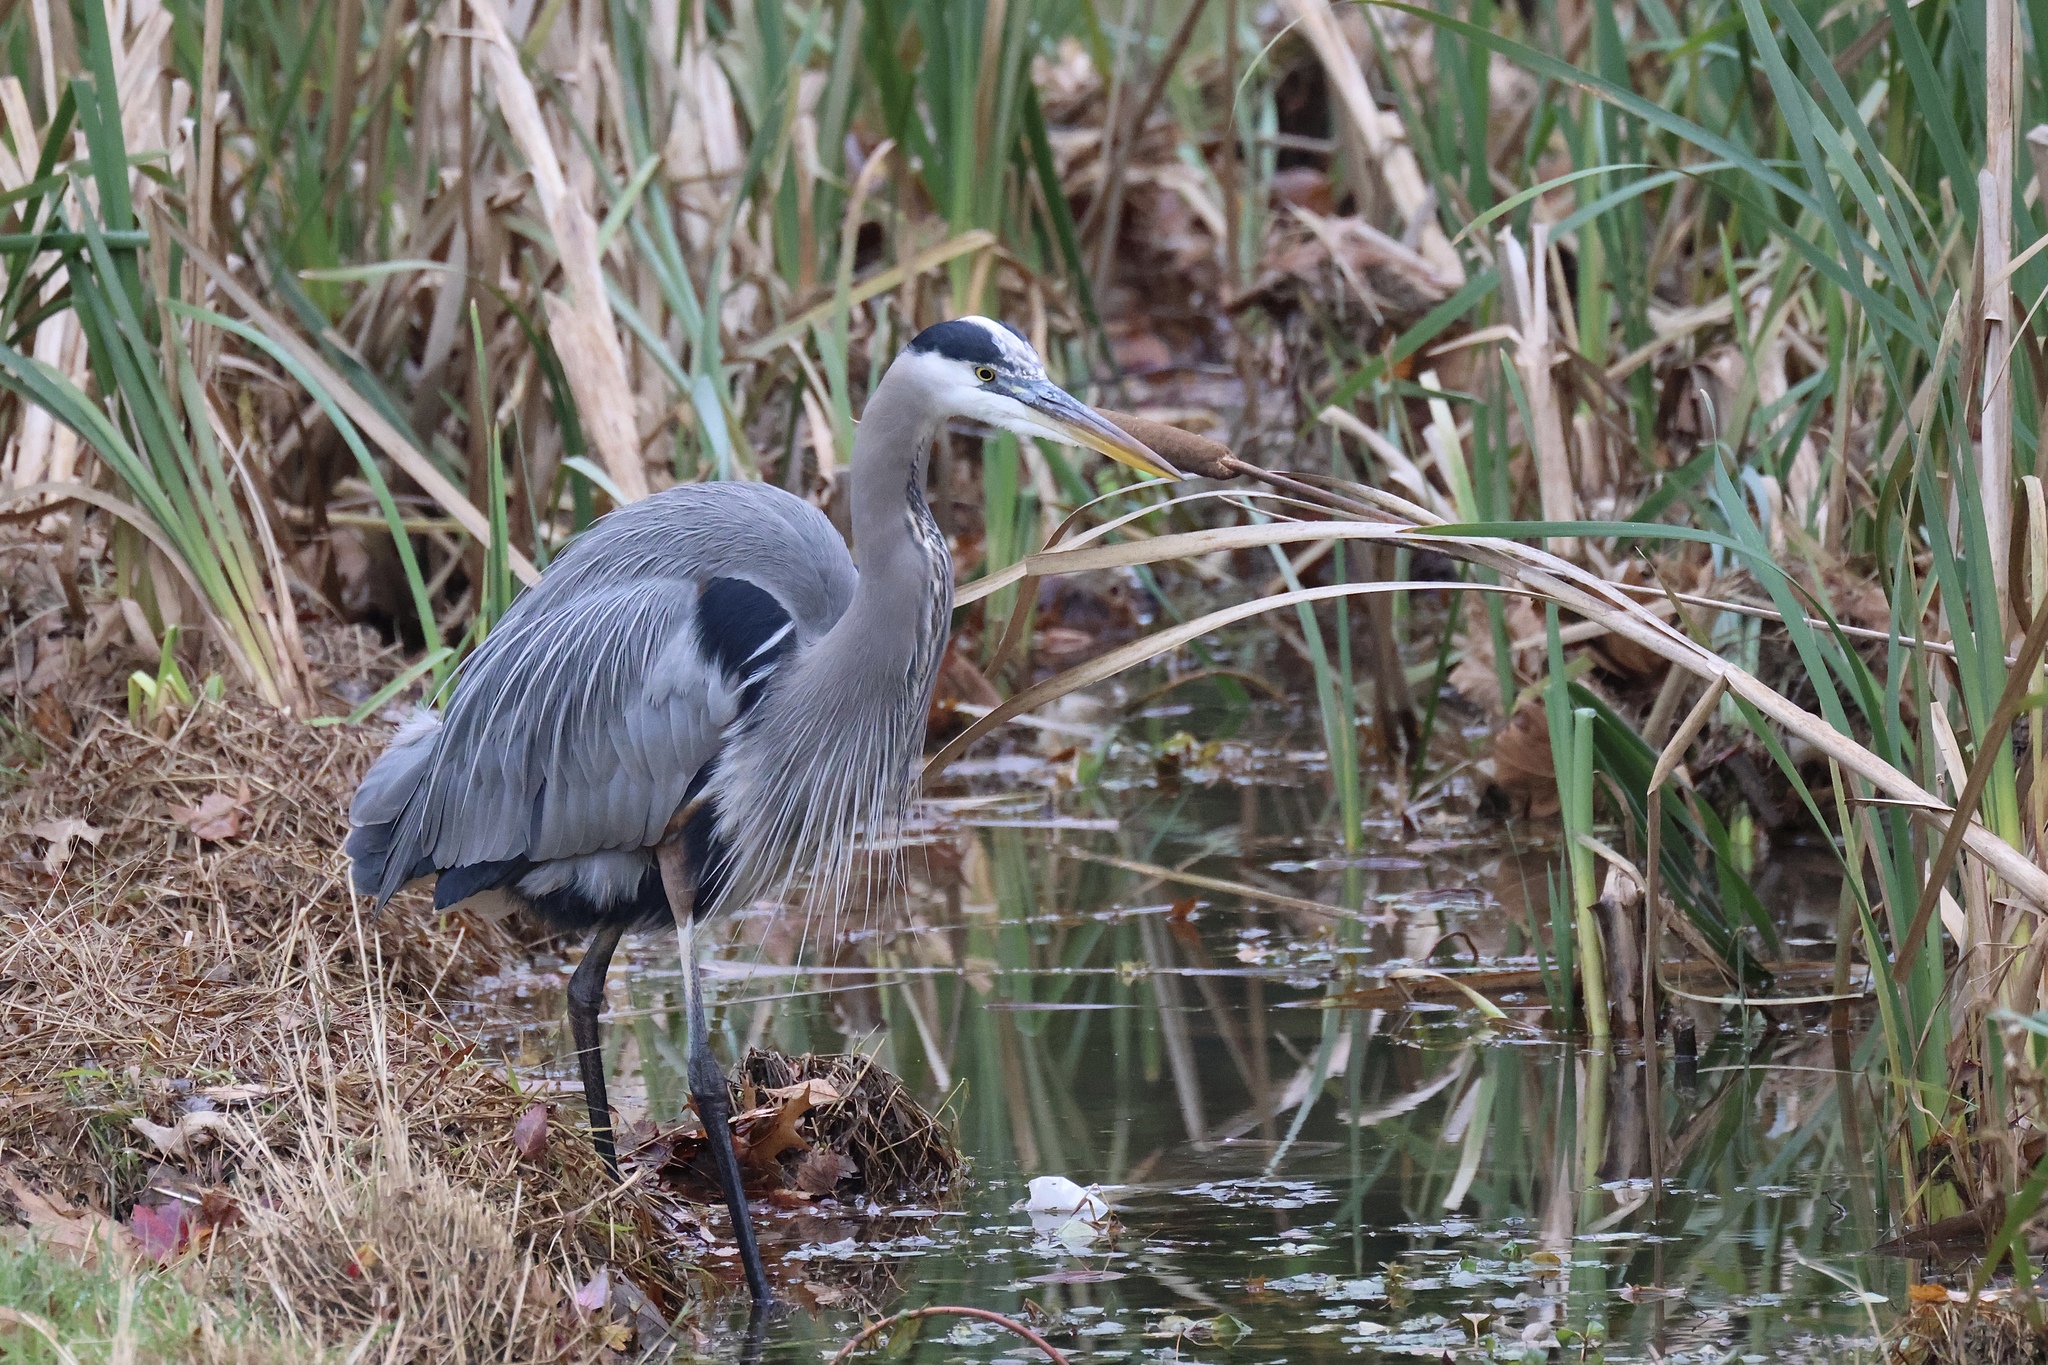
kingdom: Animalia
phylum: Chordata
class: Aves
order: Pelecaniformes
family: Ardeidae
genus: Ardea
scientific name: Ardea herodias
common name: Great blue heron
